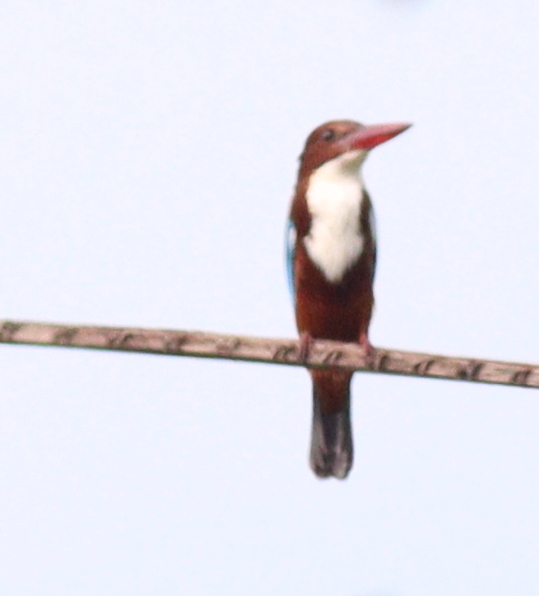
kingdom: Animalia
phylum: Chordata
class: Aves
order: Coraciiformes
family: Alcedinidae
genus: Halcyon
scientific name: Halcyon smyrnensis
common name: White-throated kingfisher
